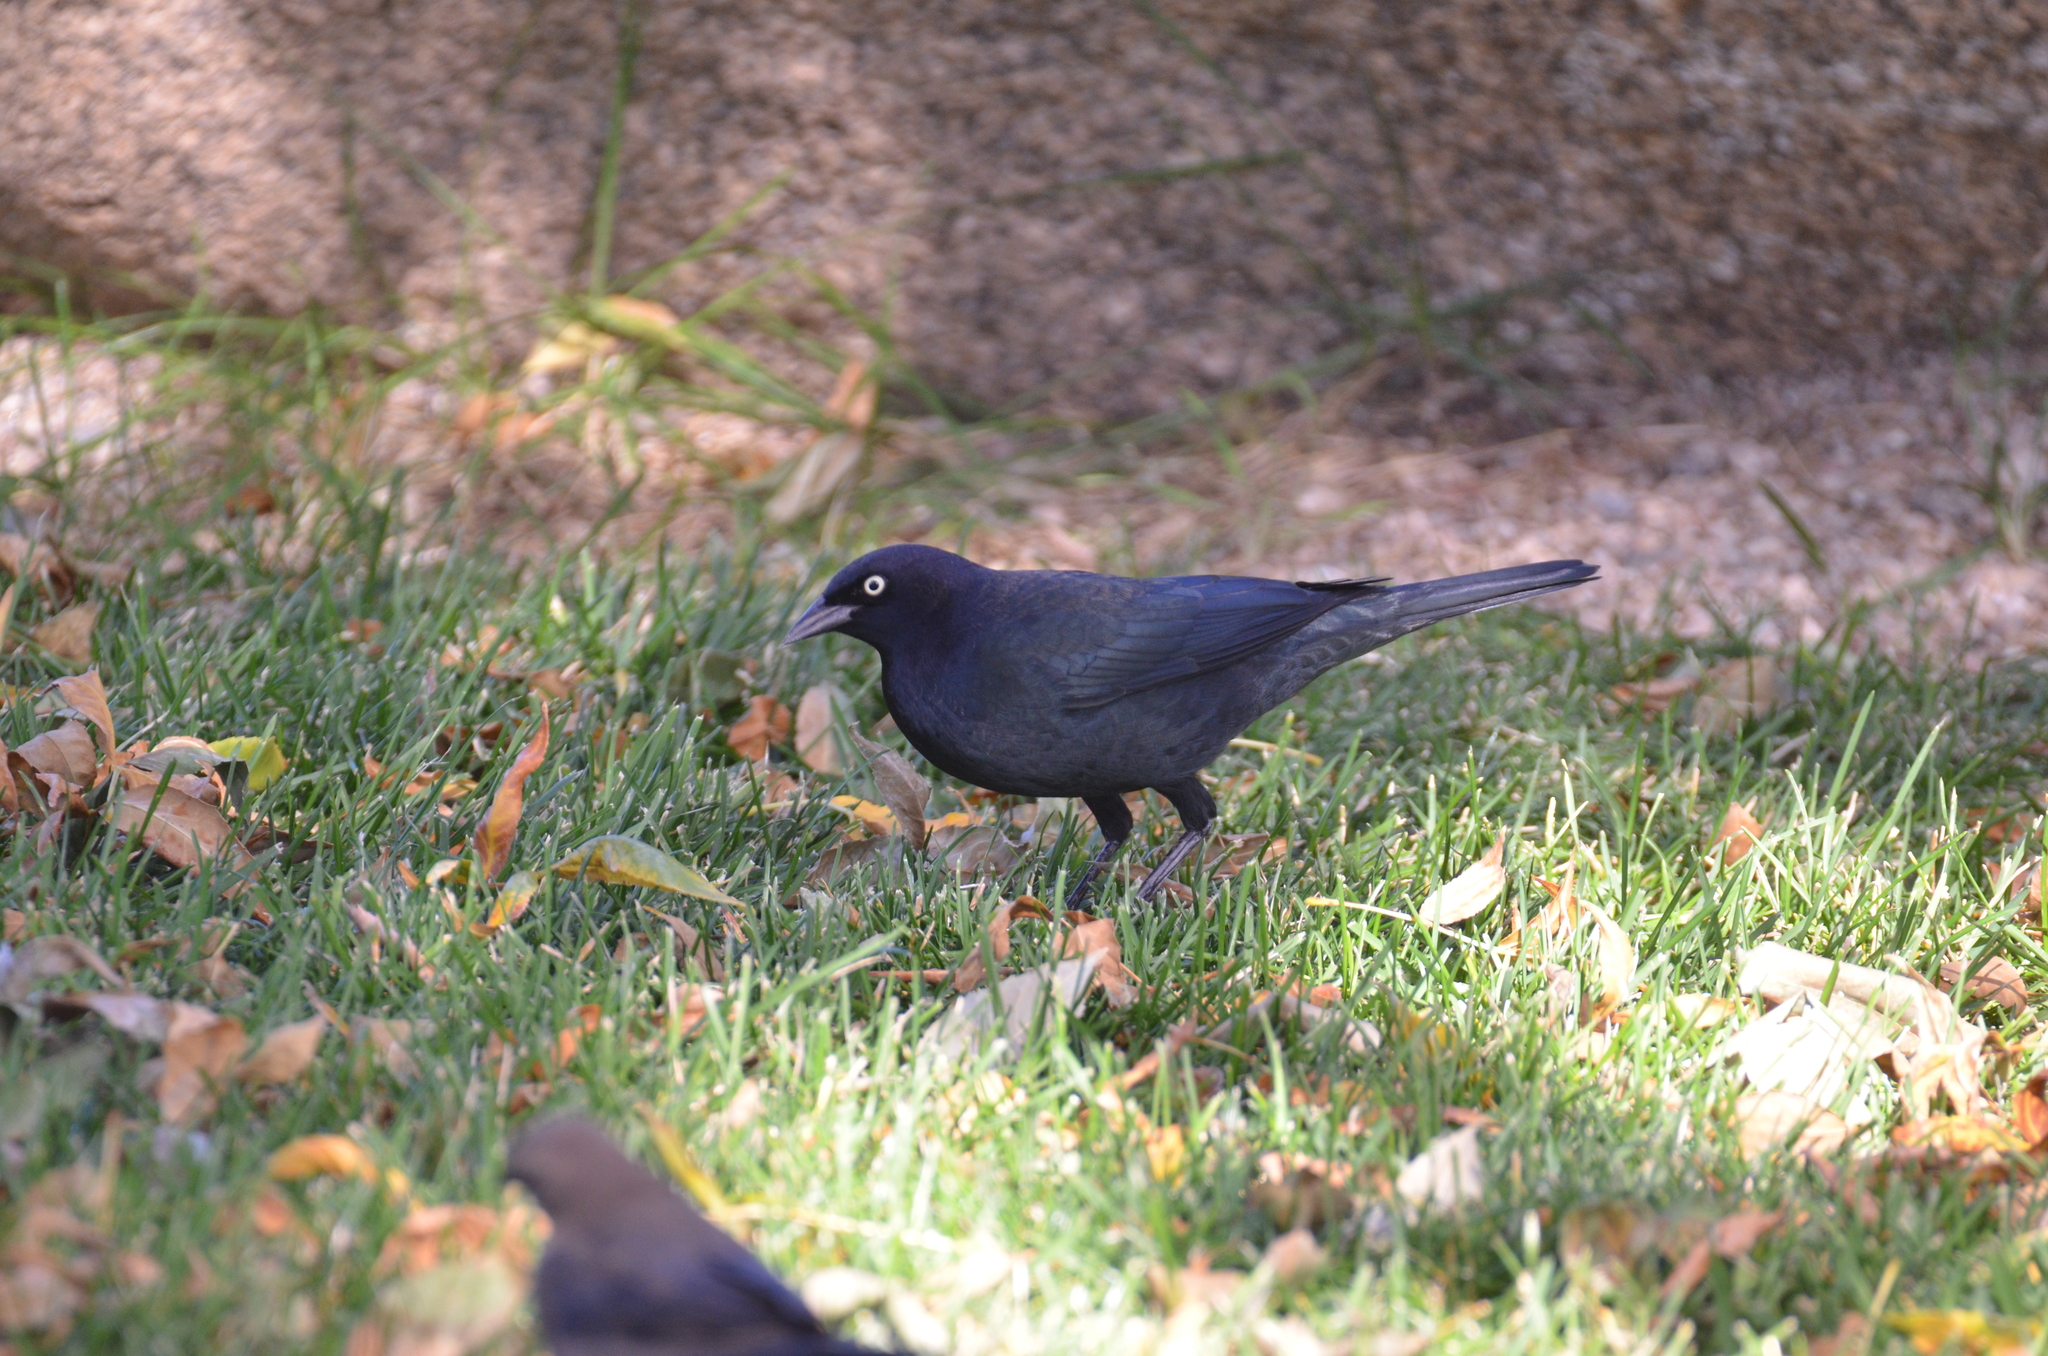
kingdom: Animalia
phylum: Chordata
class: Aves
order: Passeriformes
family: Icteridae
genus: Euphagus
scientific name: Euphagus cyanocephalus
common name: Brewer's blackbird
